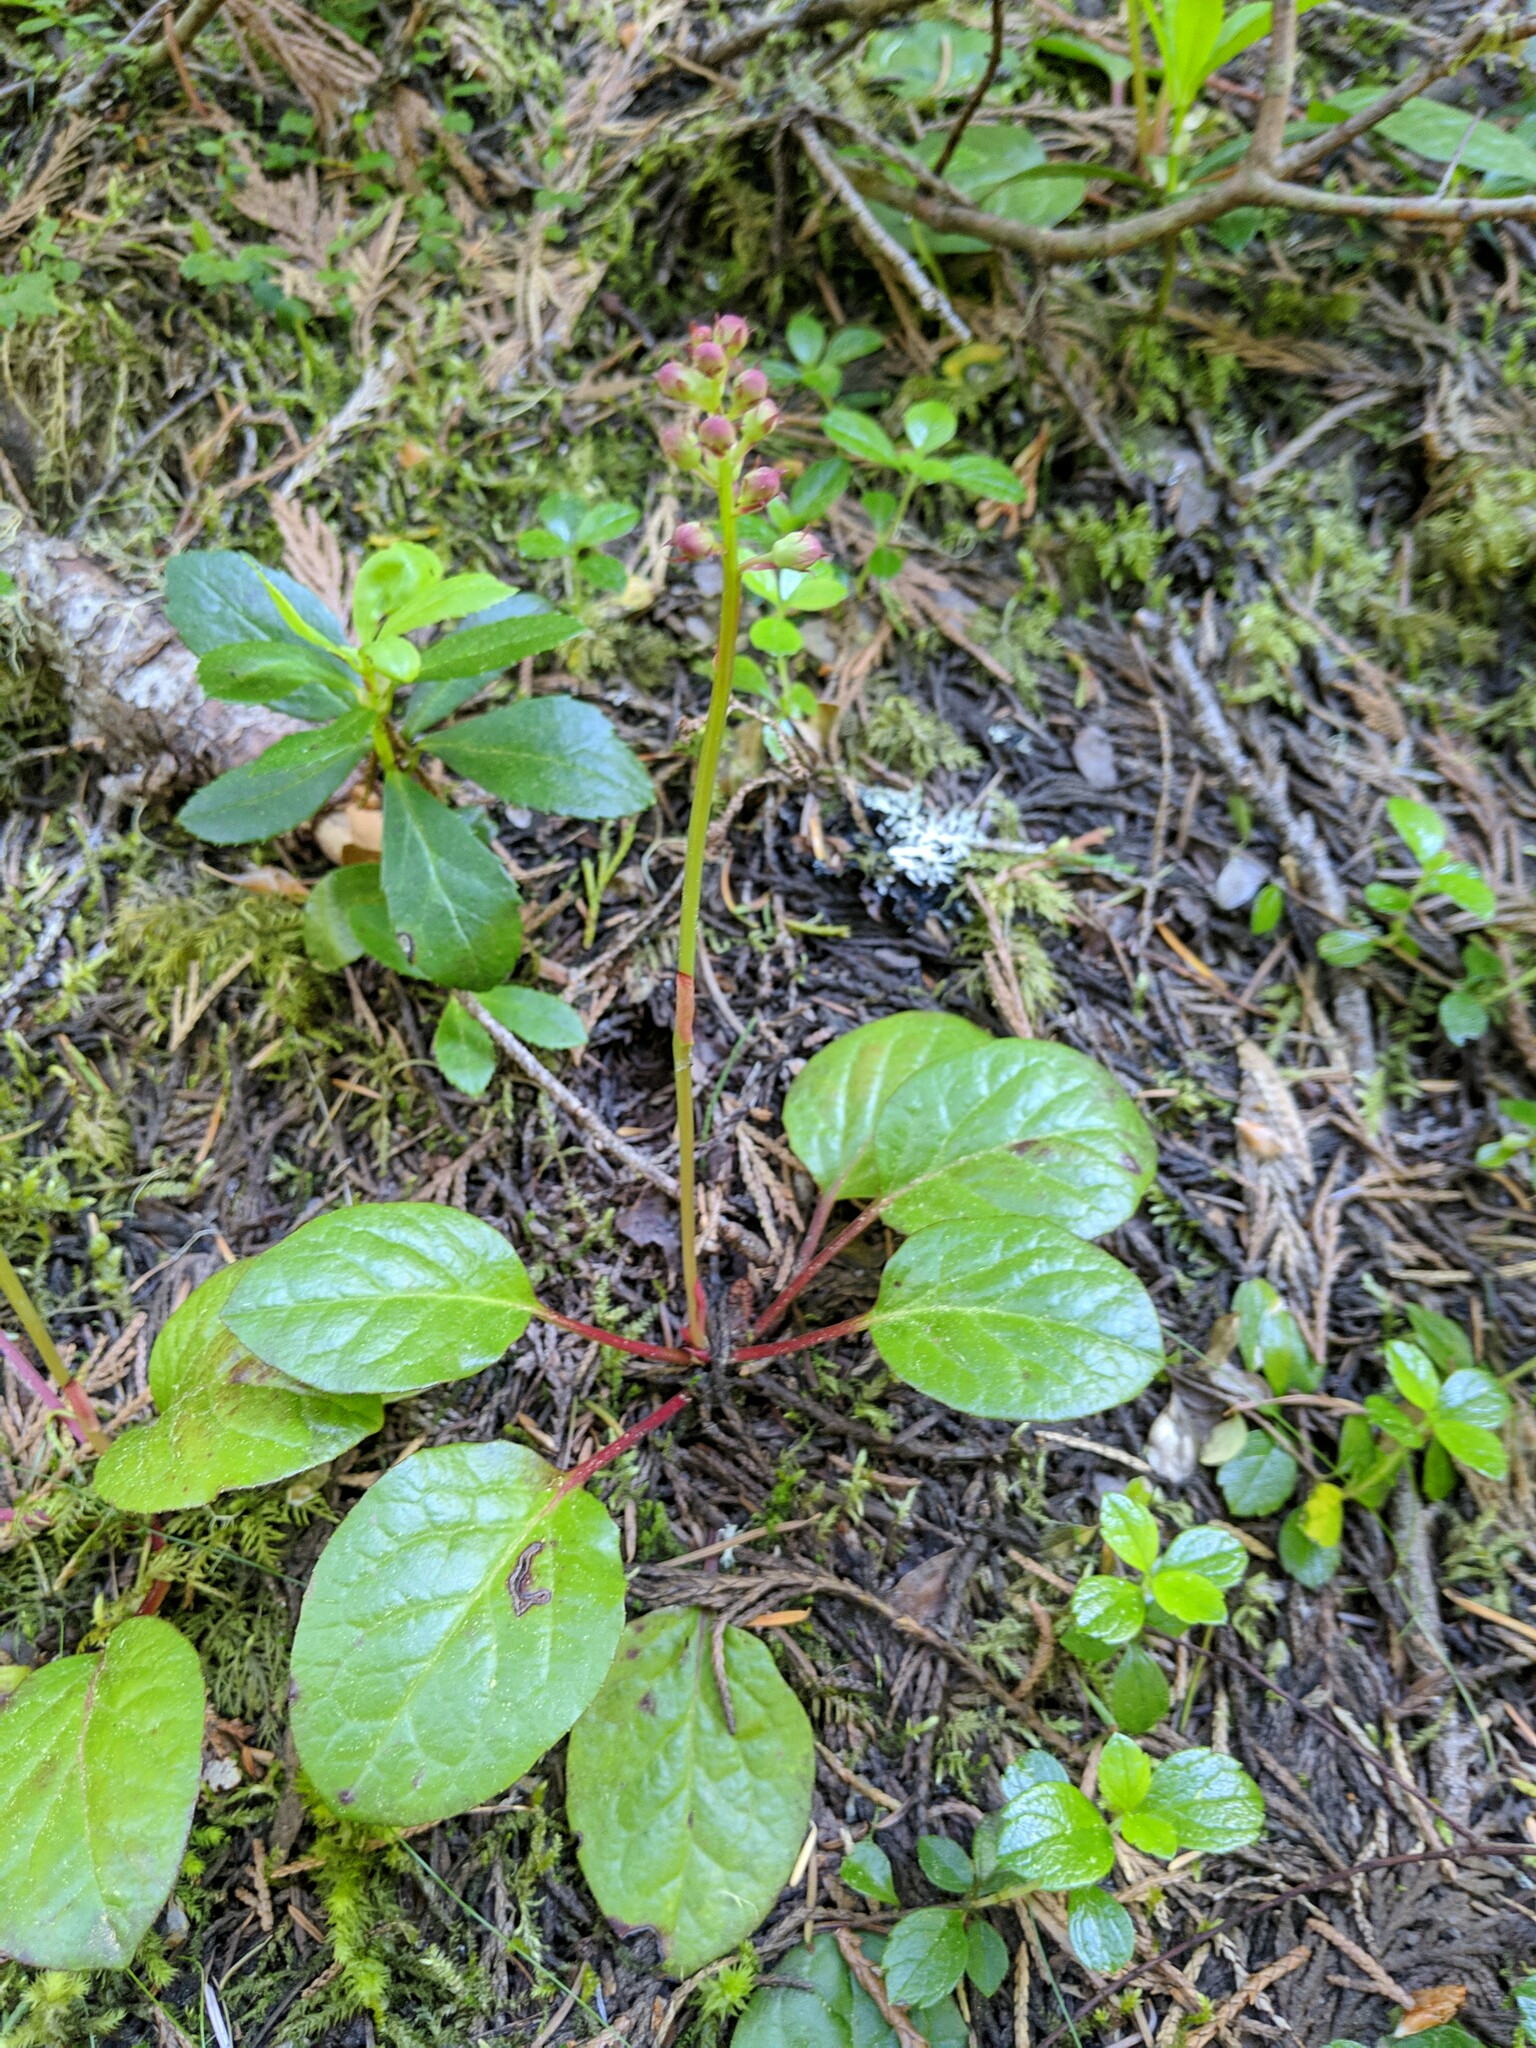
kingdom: Plantae
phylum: Tracheophyta
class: Magnoliopsida
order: Ericales
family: Ericaceae
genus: Pyrola
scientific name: Pyrola asarifolia
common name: Bog wintergreen
